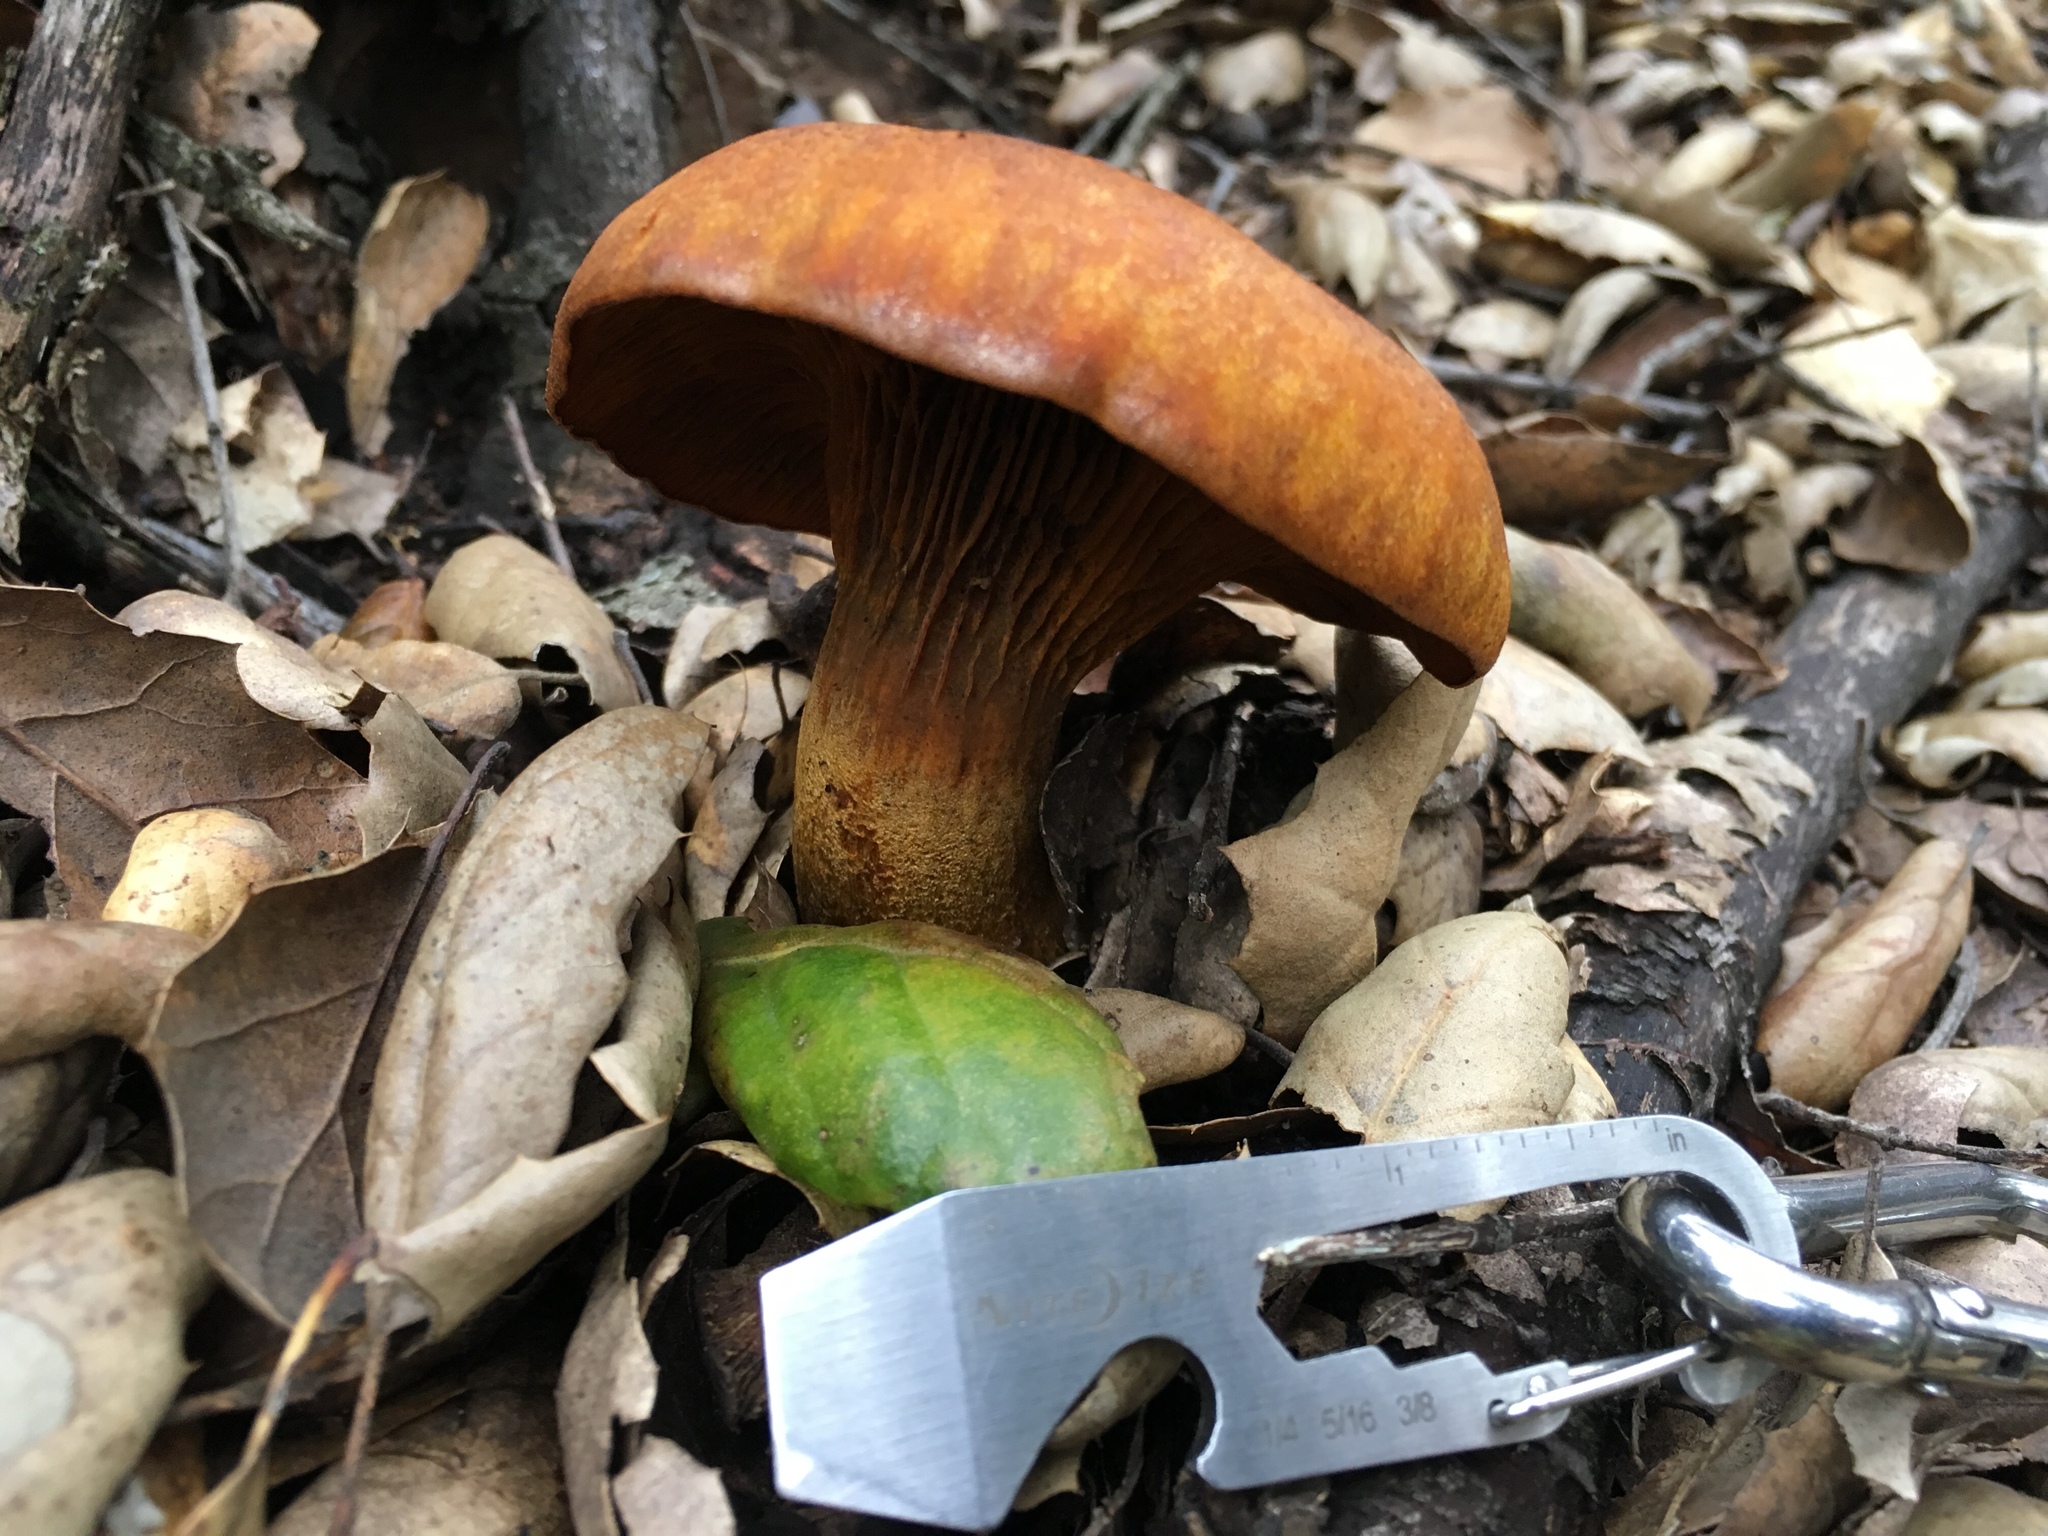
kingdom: Fungi
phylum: Basidiomycota
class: Agaricomycetes
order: Agaricales
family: Omphalotaceae
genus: Omphalotus
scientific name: Omphalotus olivascens
